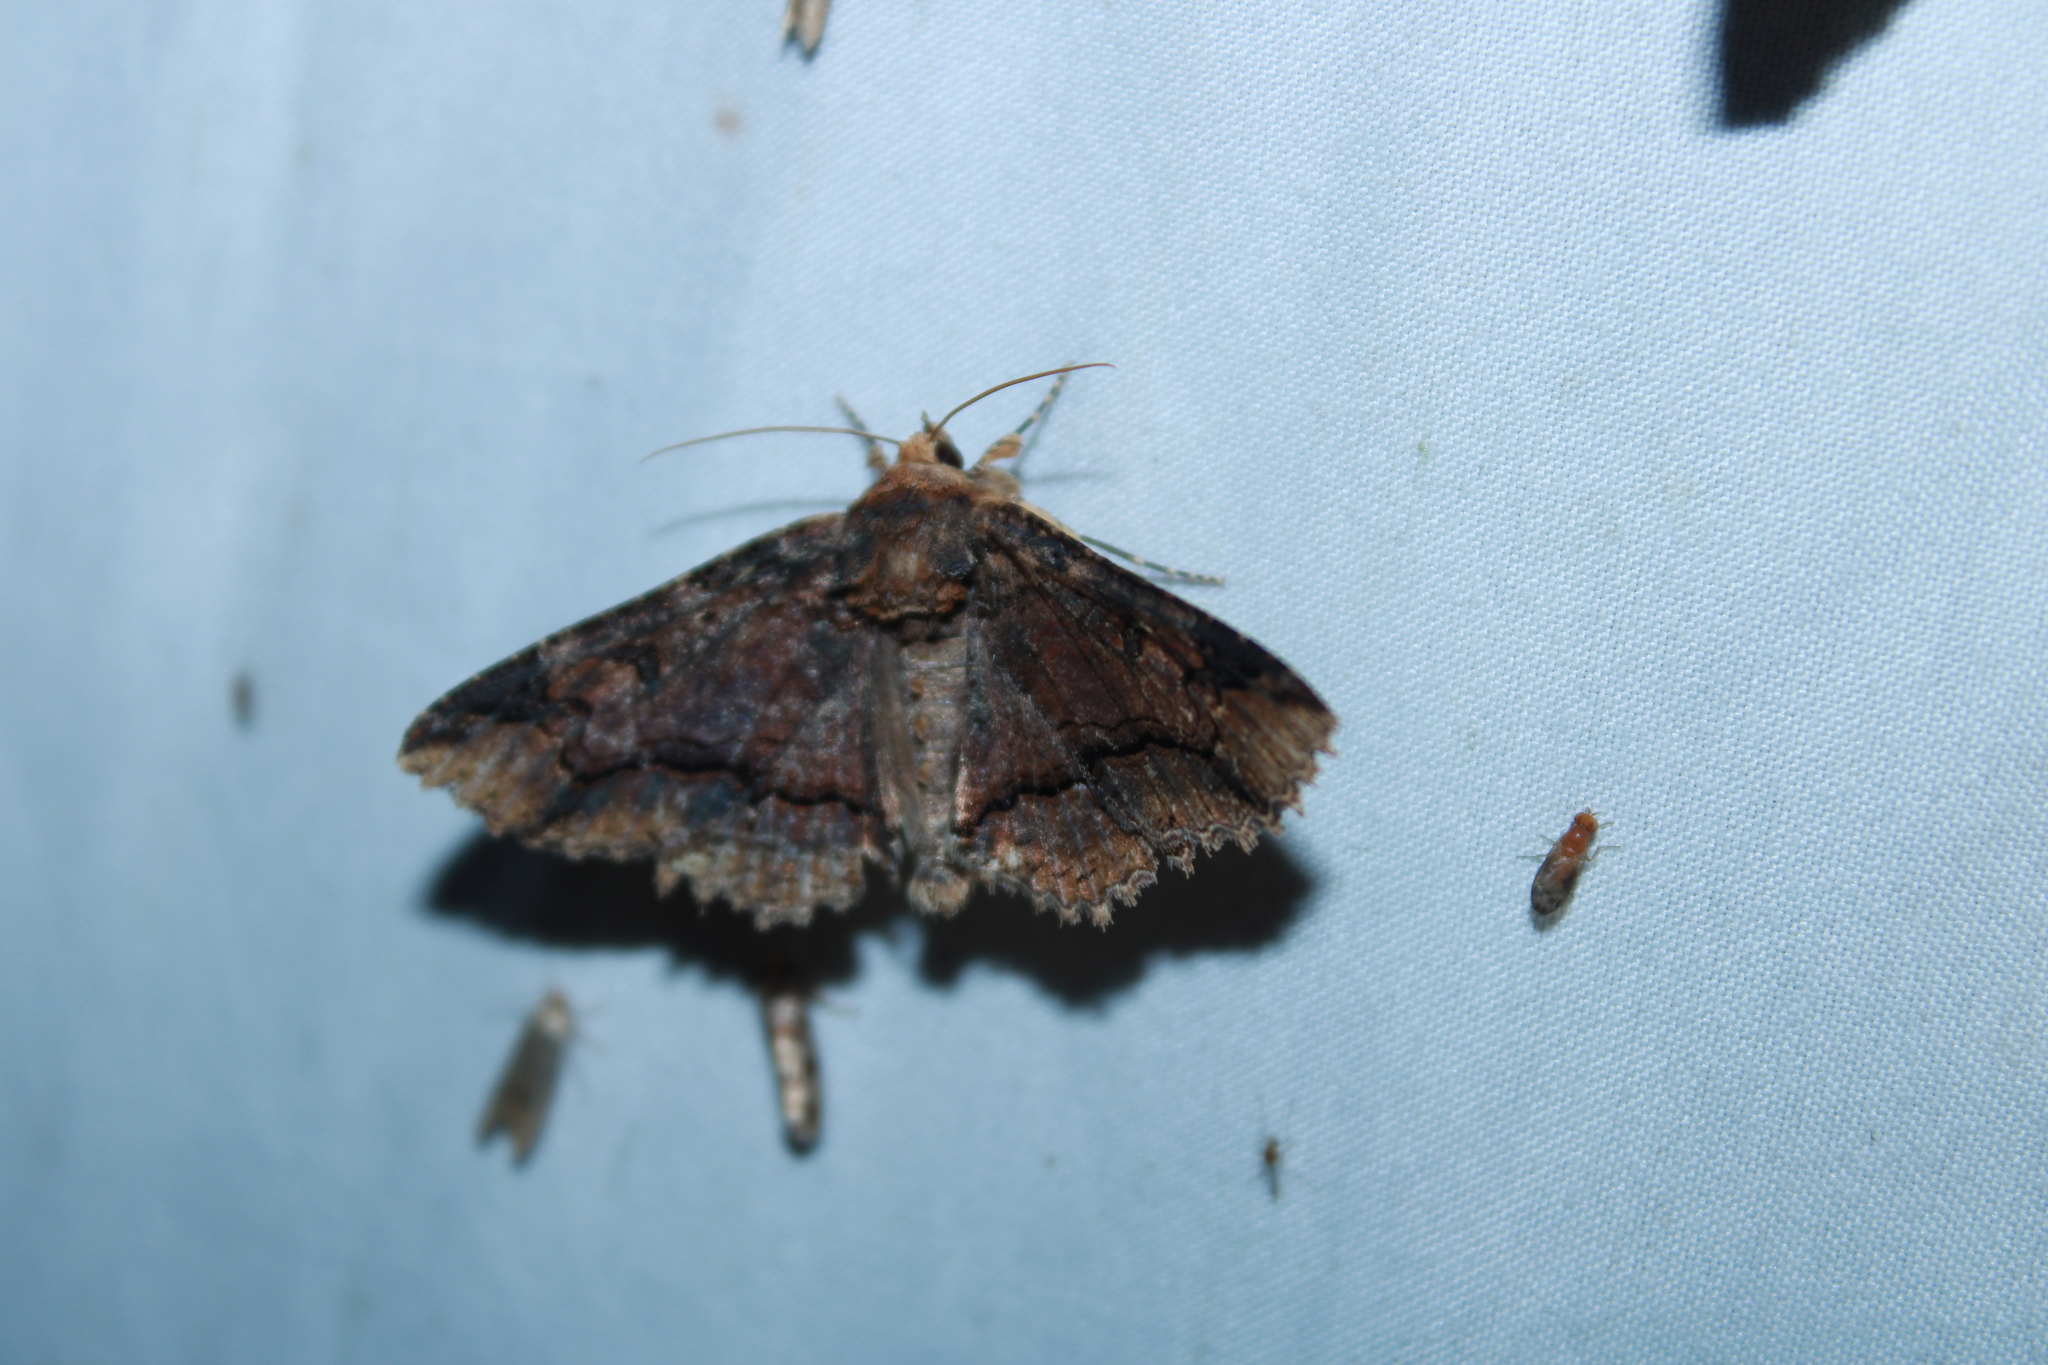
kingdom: Animalia
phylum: Arthropoda
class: Insecta
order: Lepidoptera
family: Erebidae
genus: Zale
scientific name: Zale minerea
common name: Colorful zale moth
